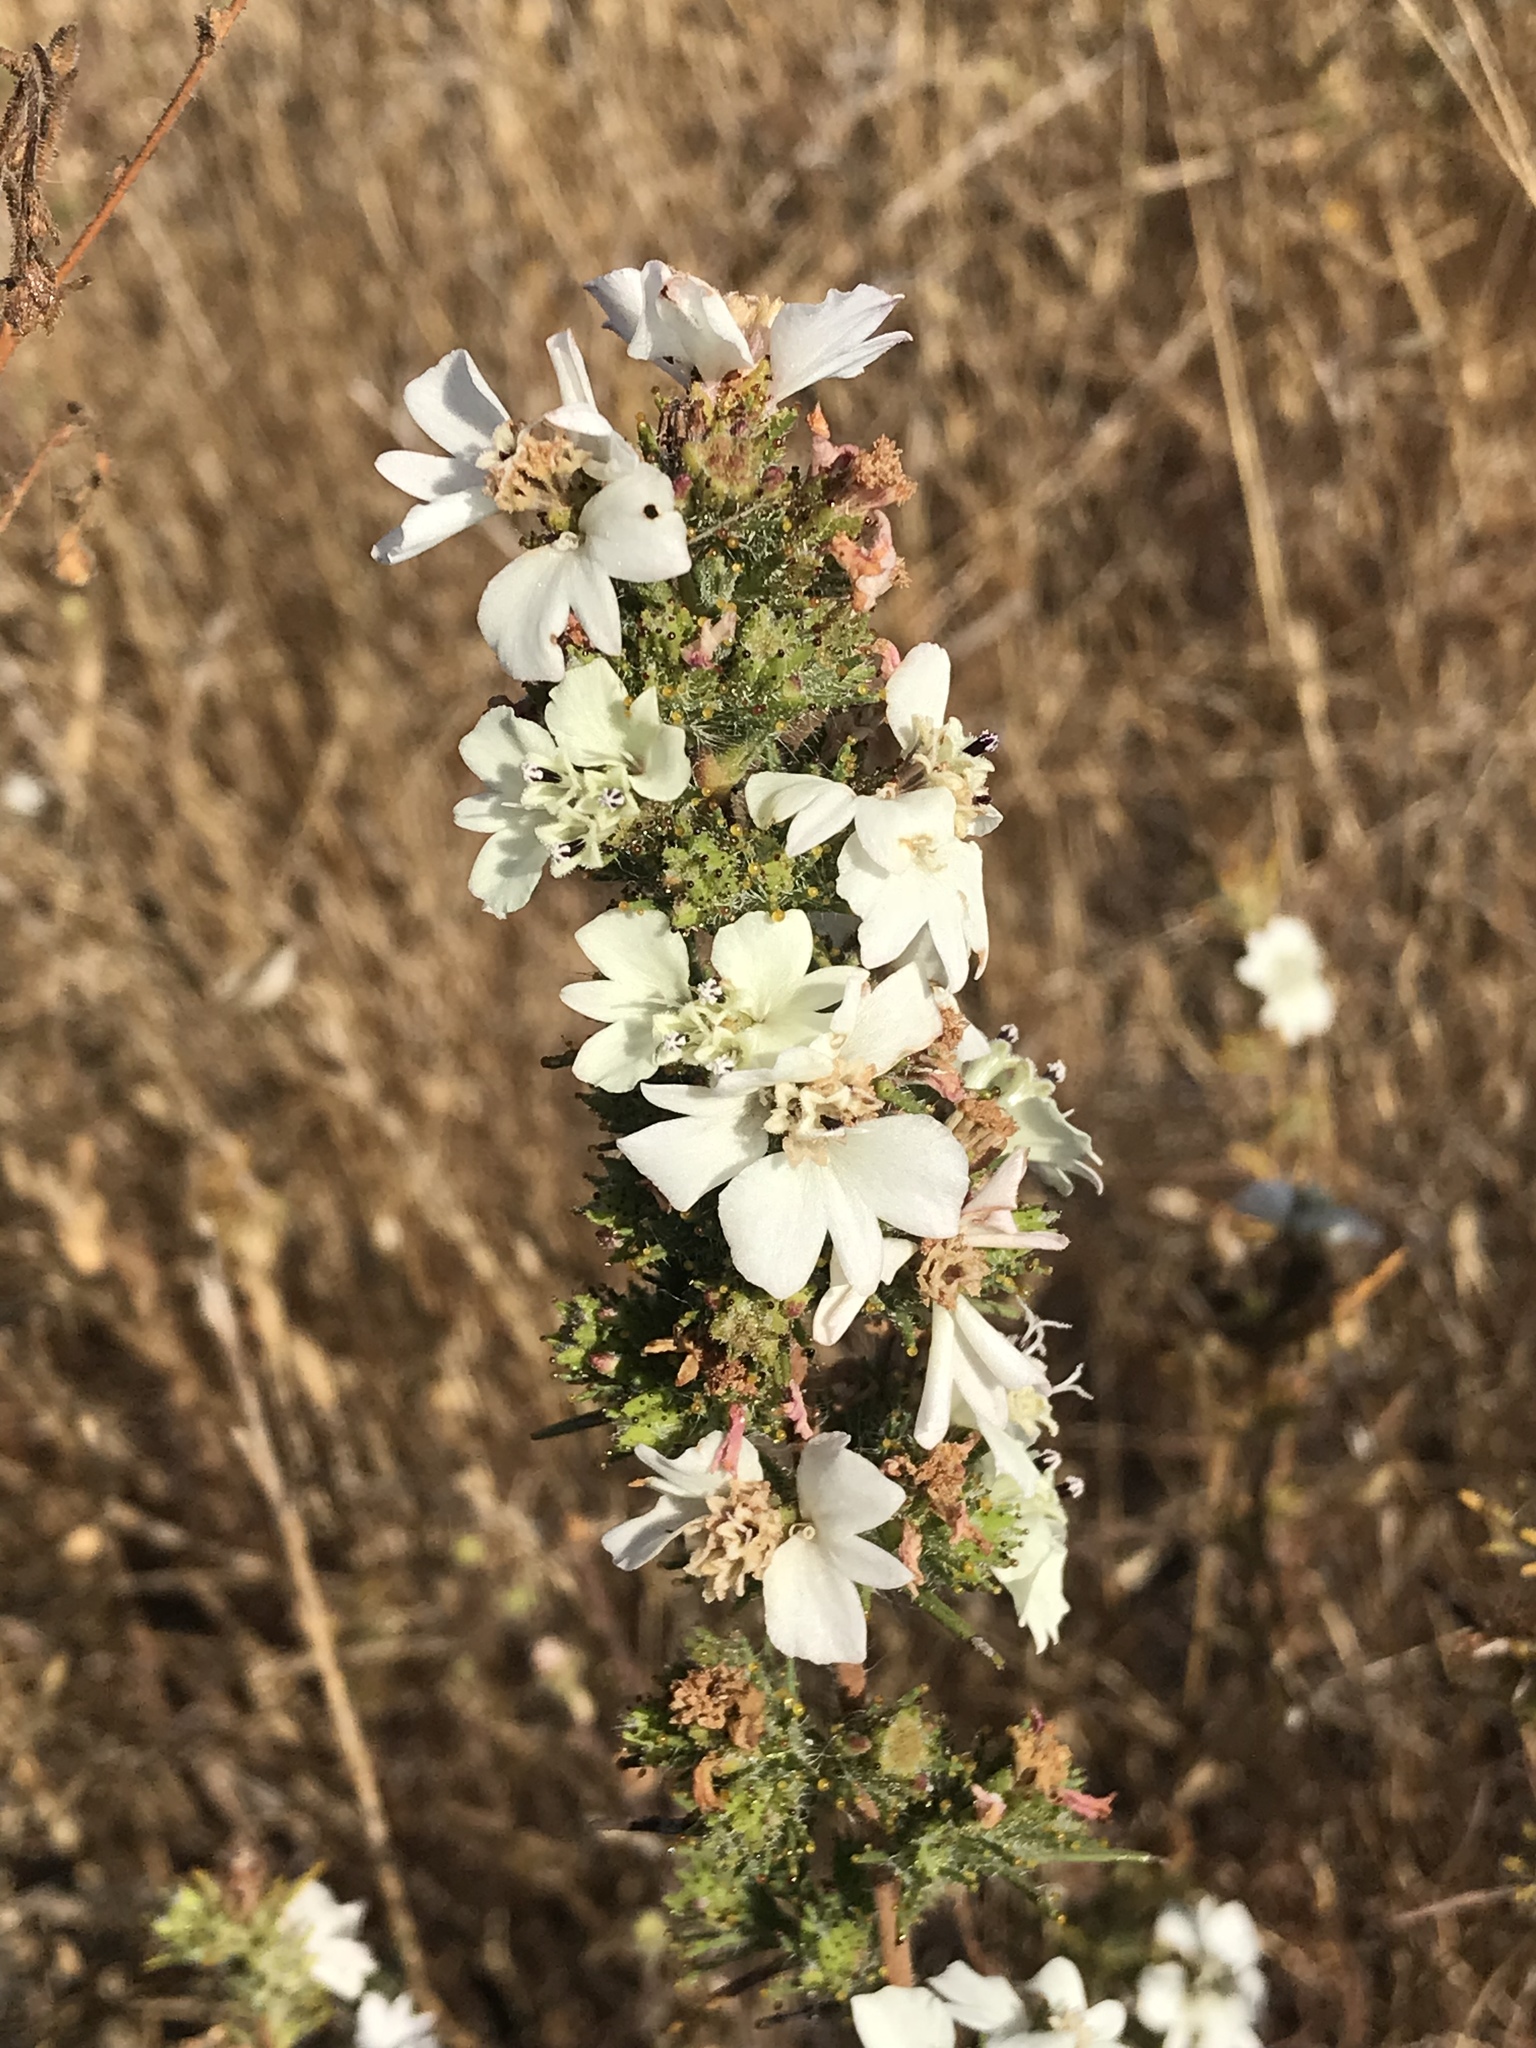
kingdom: Plantae
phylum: Tracheophyta
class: Magnoliopsida
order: Asterales
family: Asteraceae
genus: Calycadenia
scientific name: Calycadenia multiglandulosa
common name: Sticky calycadenia
